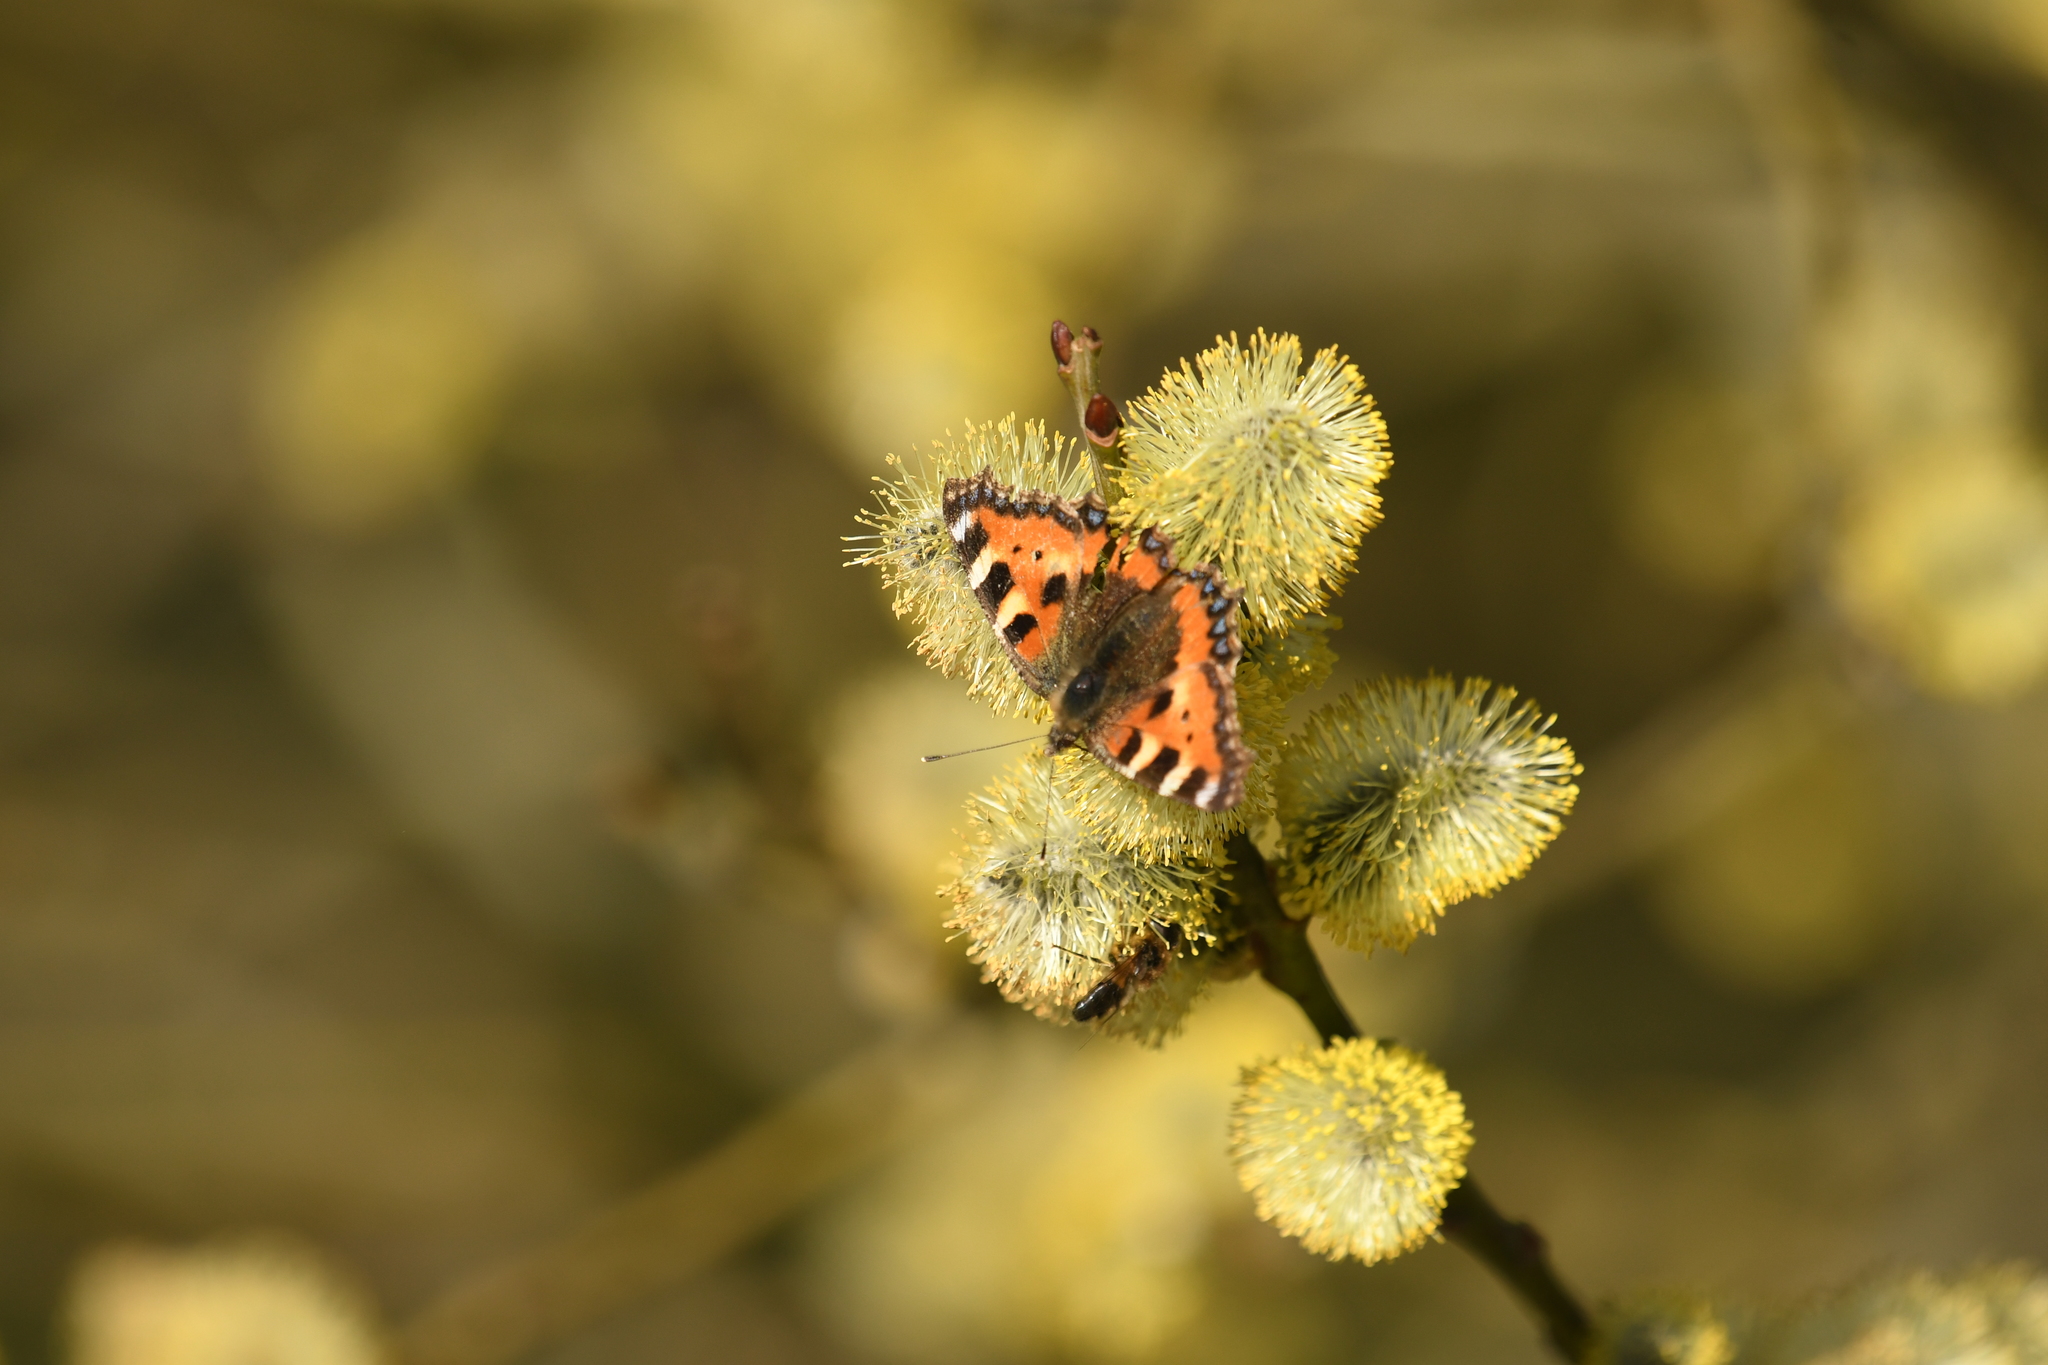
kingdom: Animalia
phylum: Arthropoda
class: Insecta
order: Lepidoptera
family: Nymphalidae
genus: Aglais
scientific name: Aglais urticae
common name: Small tortoiseshell
